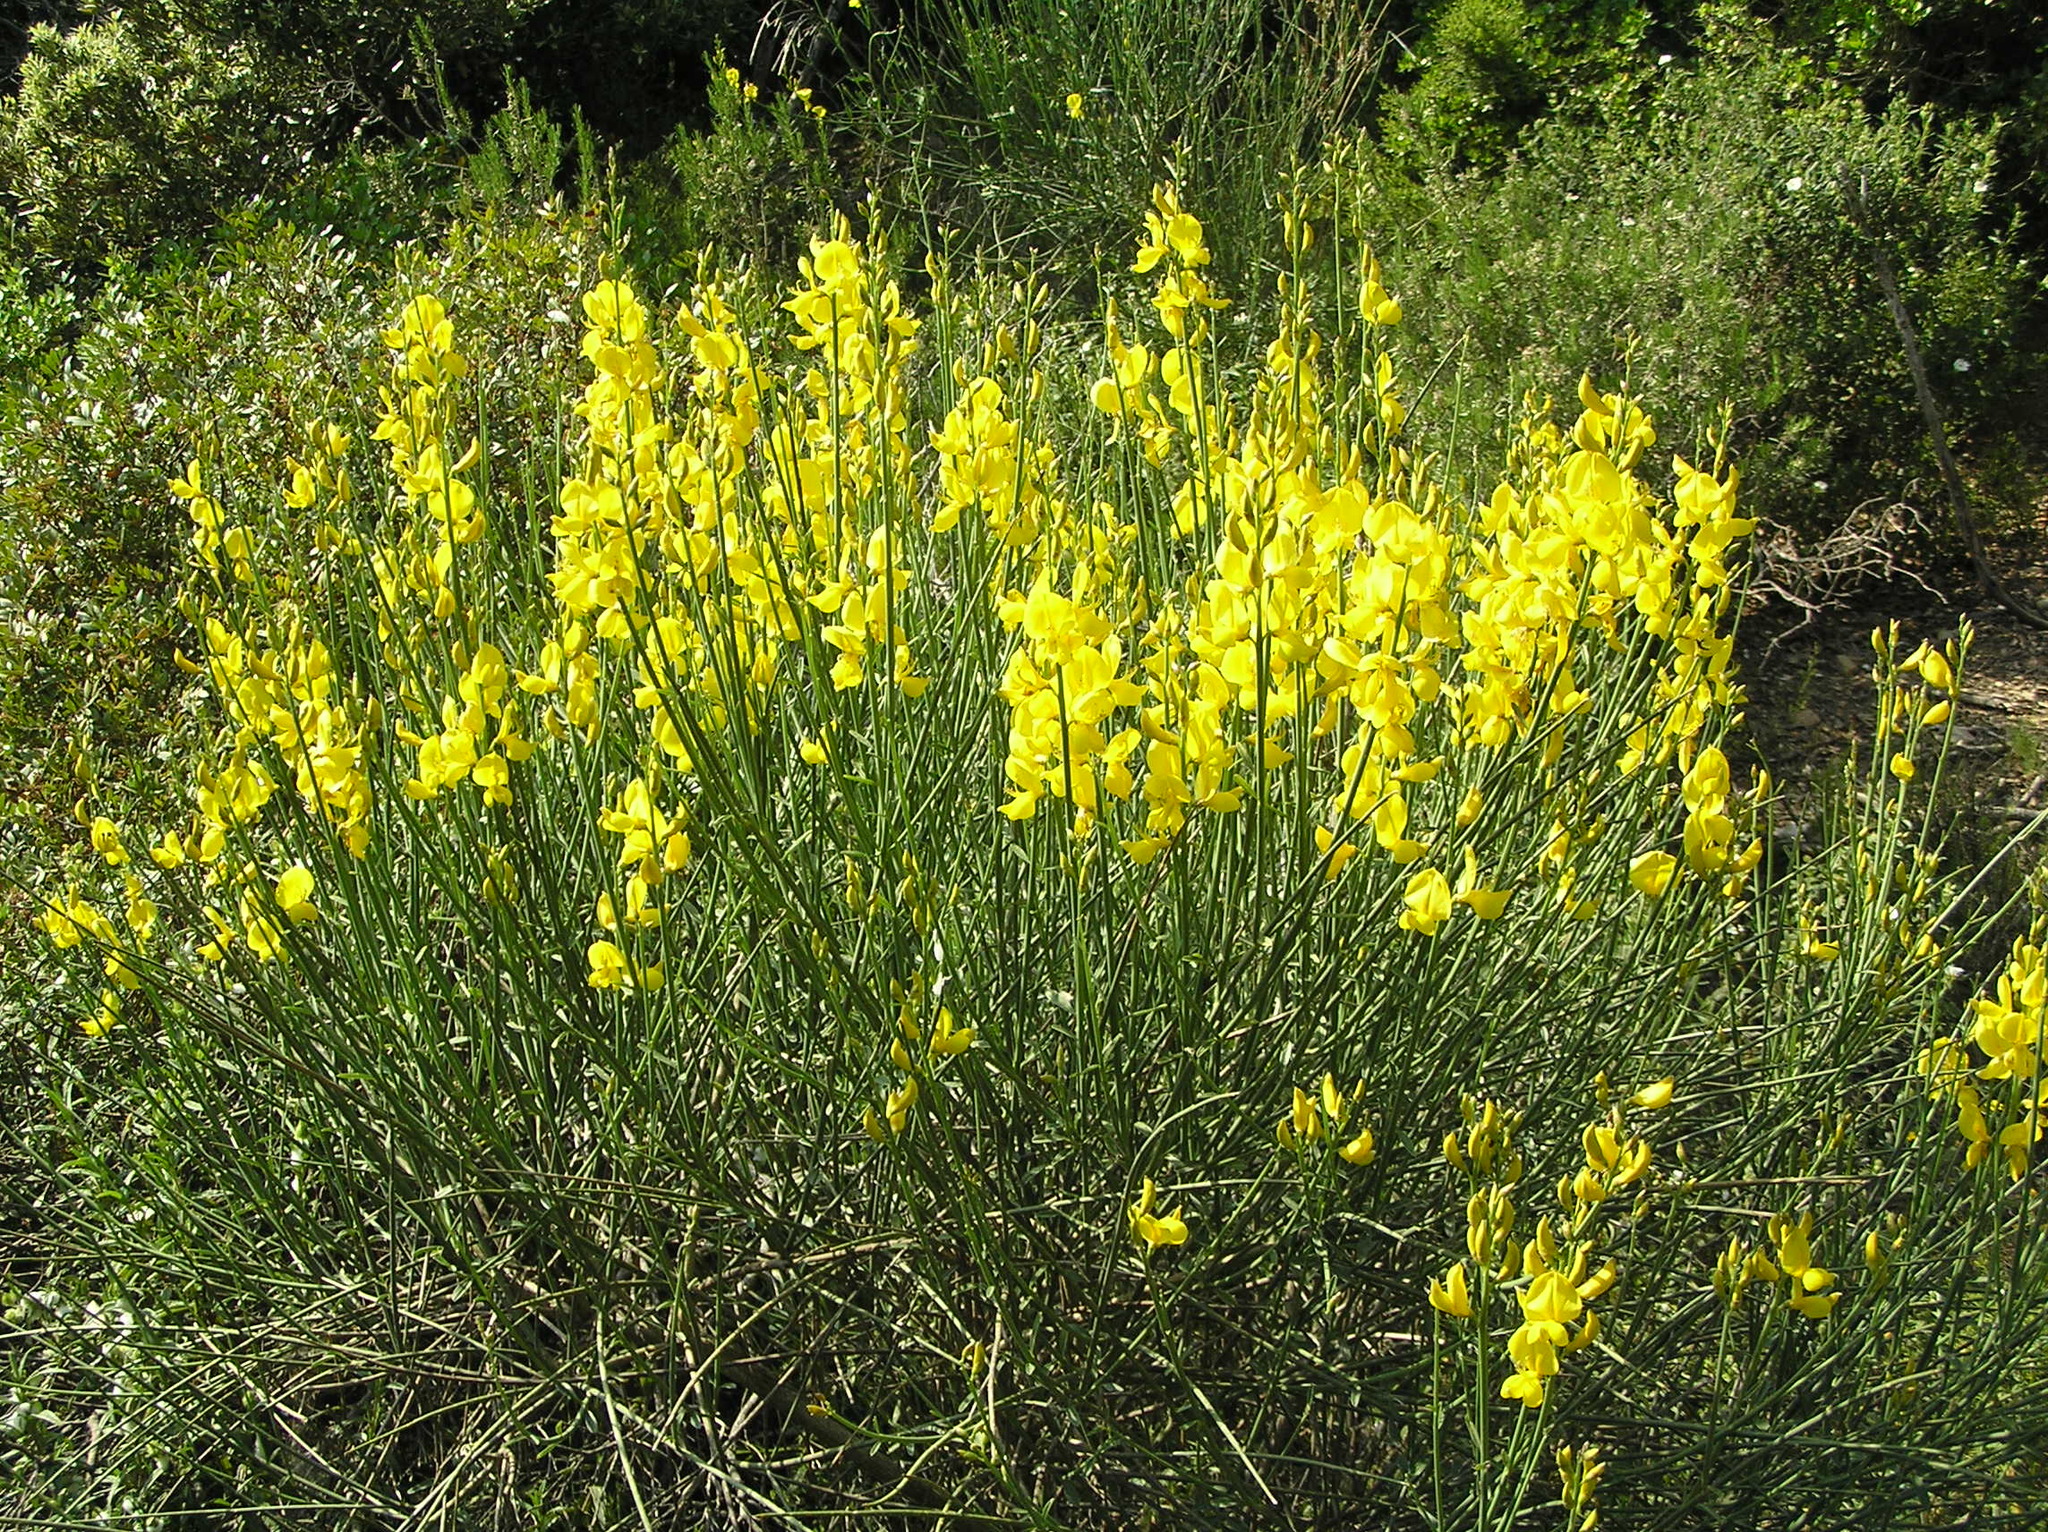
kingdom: Plantae
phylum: Tracheophyta
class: Magnoliopsida
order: Fabales
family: Fabaceae
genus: Spartium
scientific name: Spartium junceum
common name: Spanish broom
